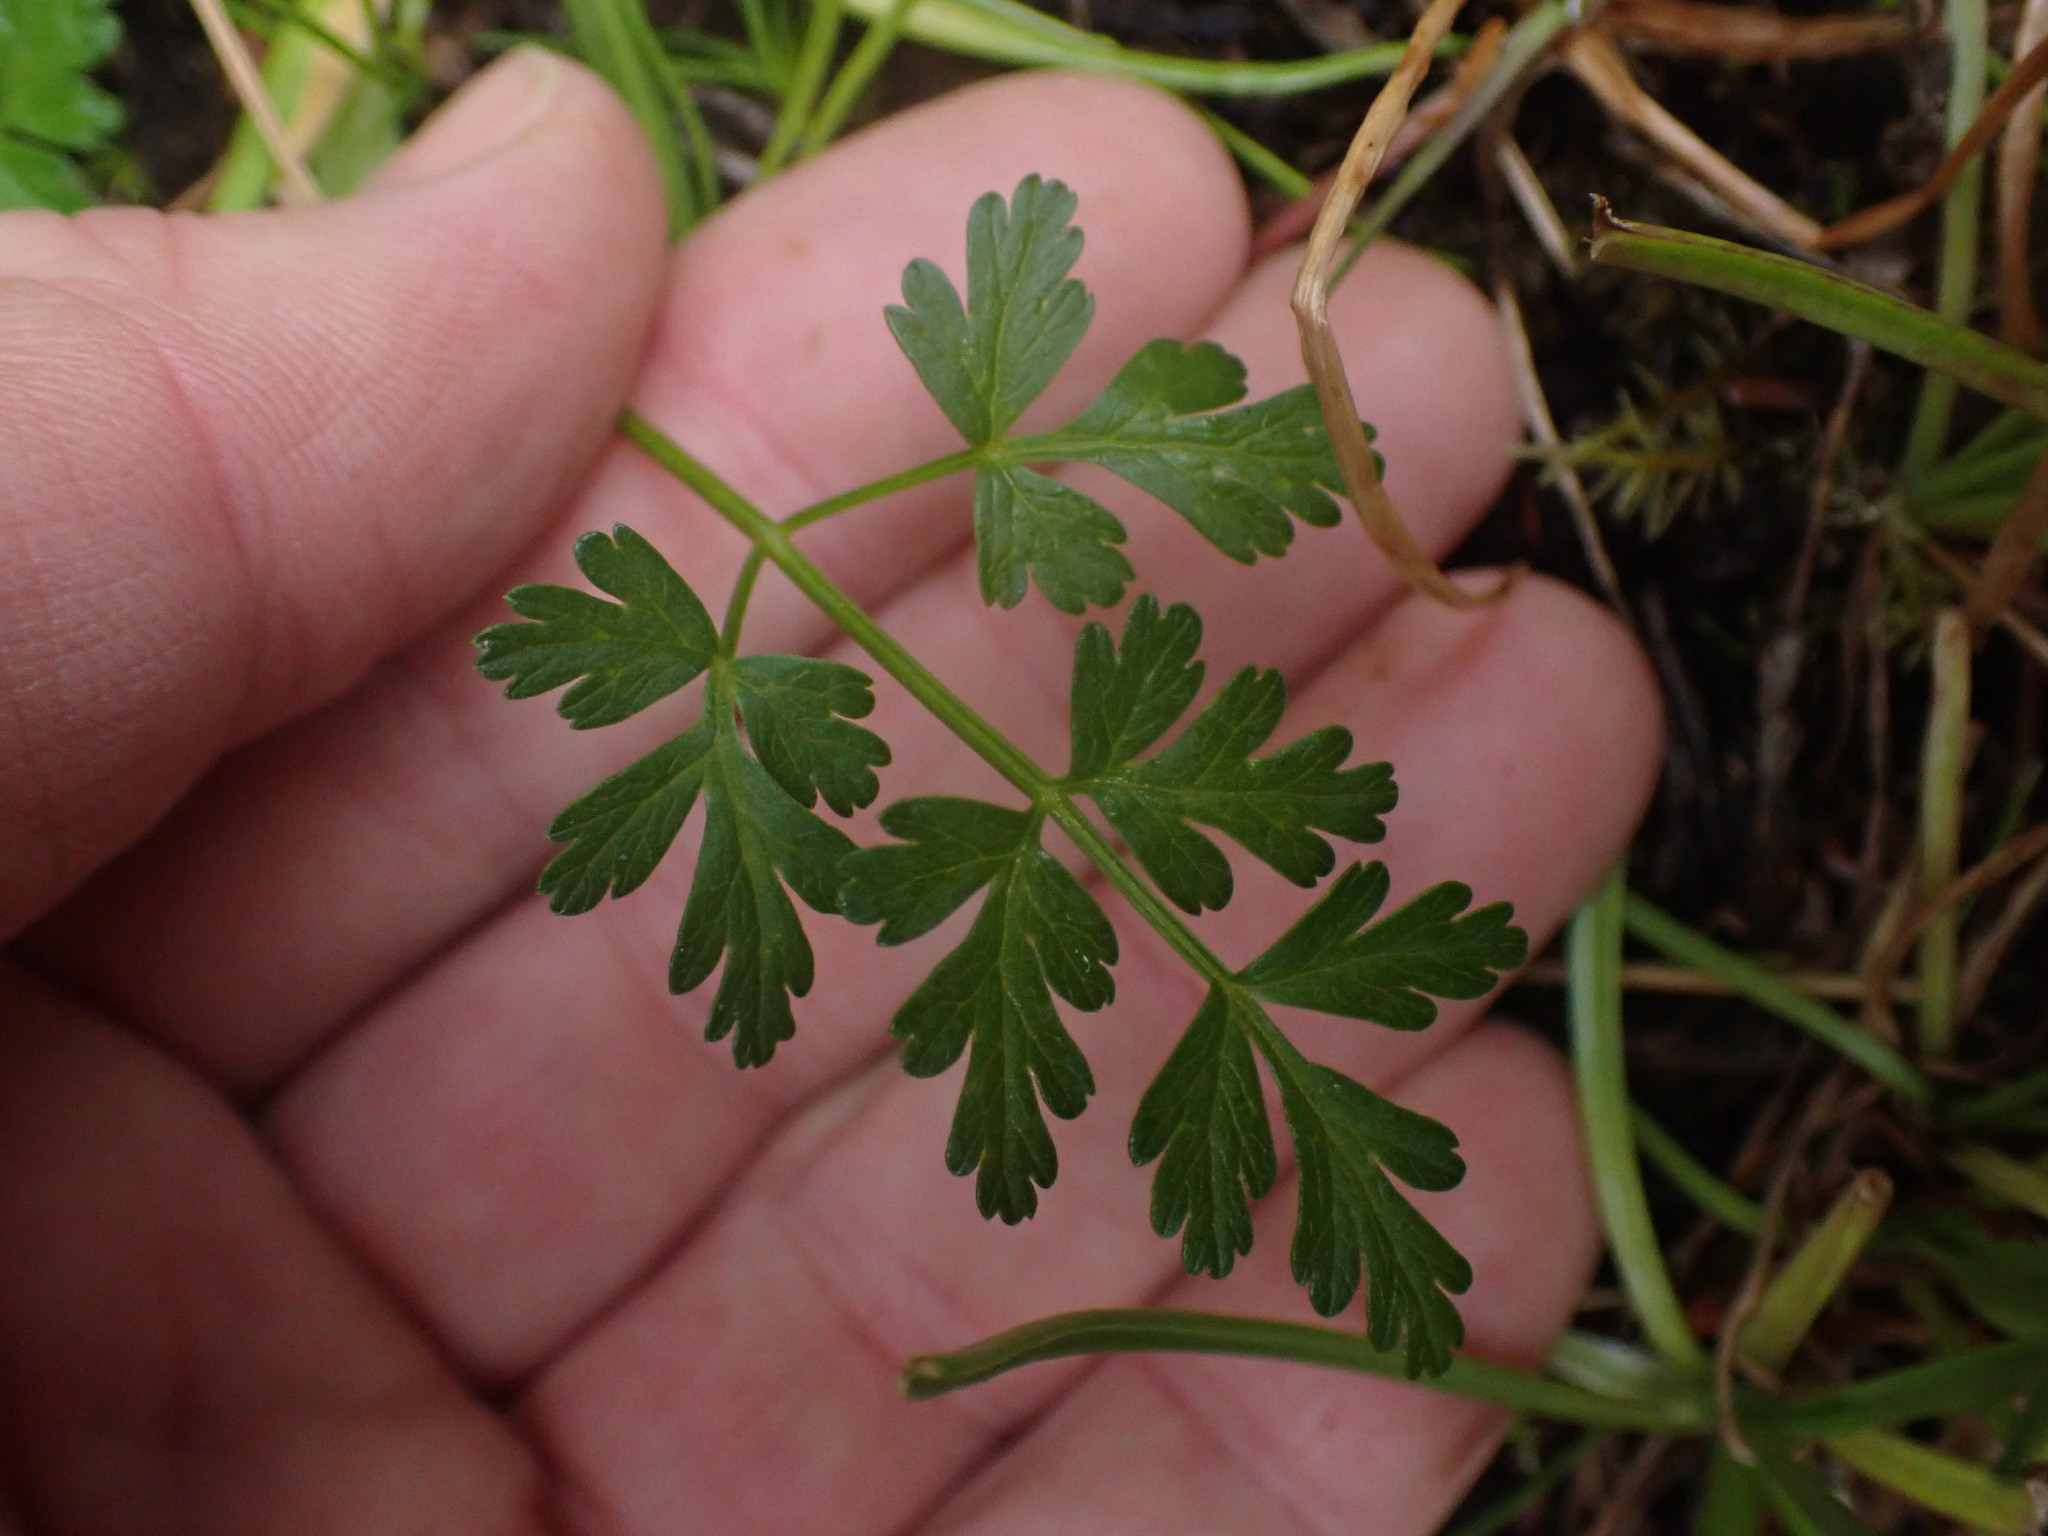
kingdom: Plantae
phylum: Tracheophyta
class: Magnoliopsida
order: Apiales
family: Apiaceae
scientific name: Apiaceae
